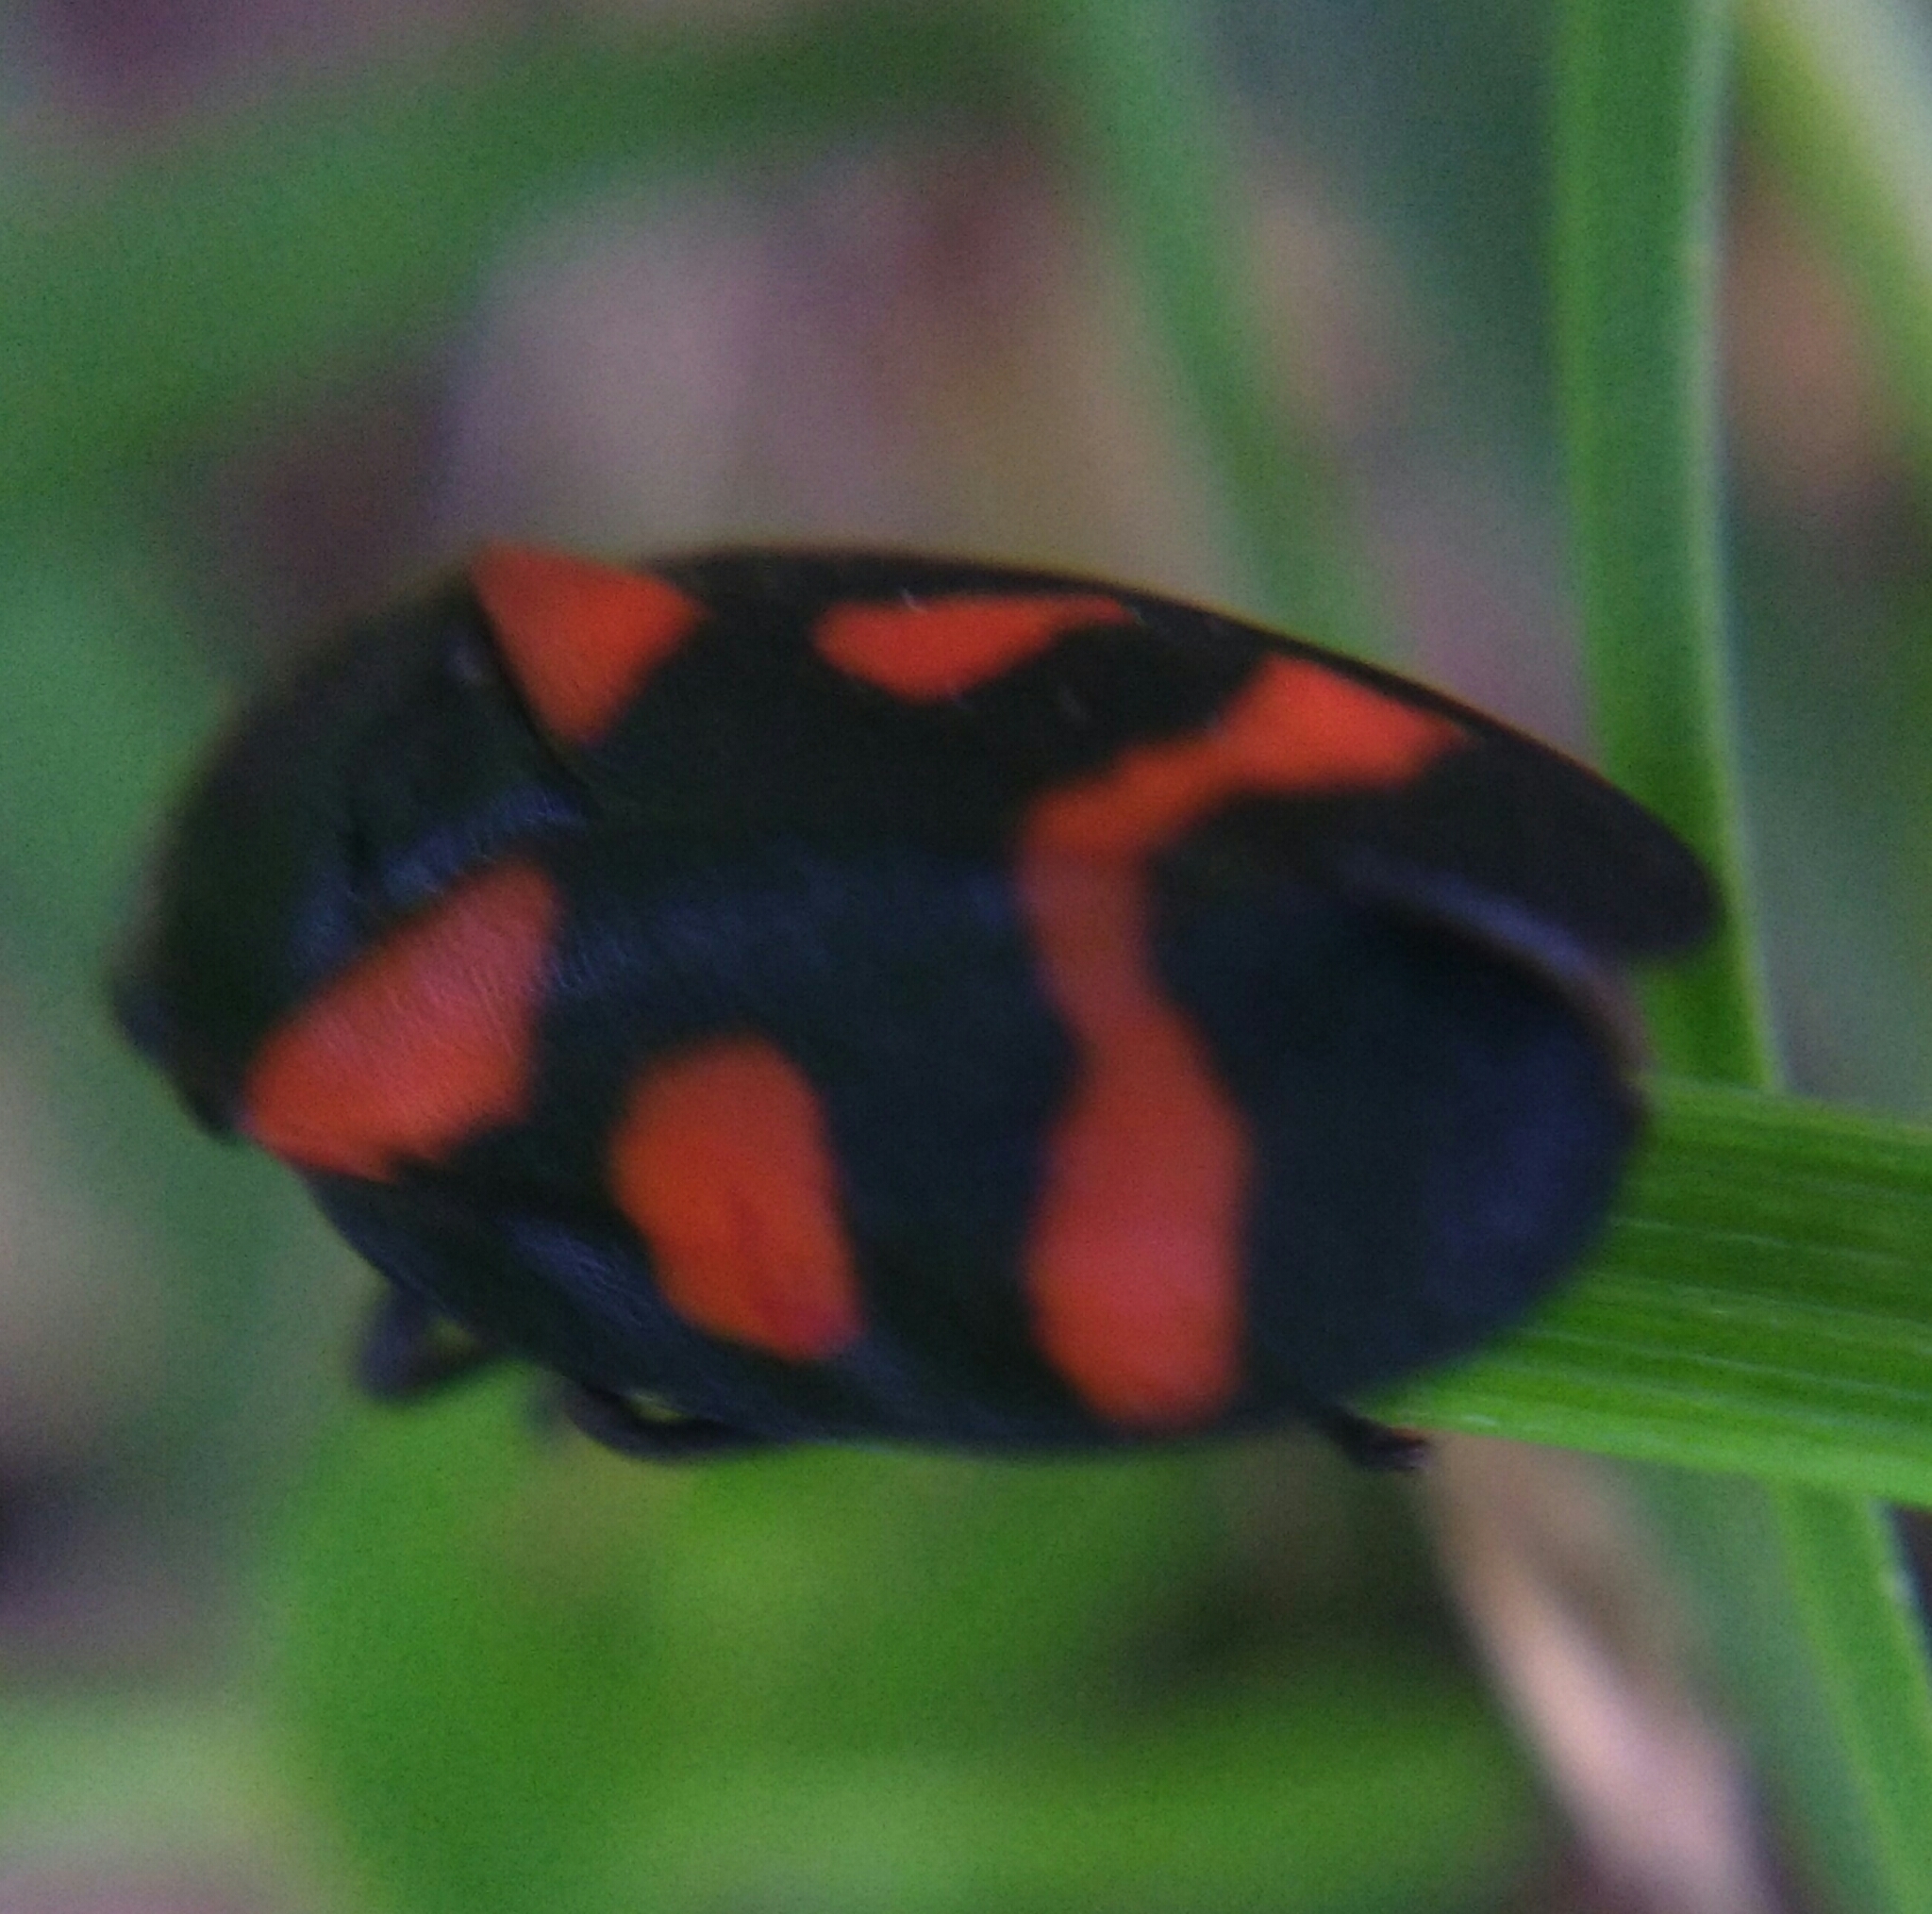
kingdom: Animalia
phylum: Arthropoda
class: Insecta
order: Hemiptera
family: Cercopidae
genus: Cercopis
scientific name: Cercopis sanguinolenta
